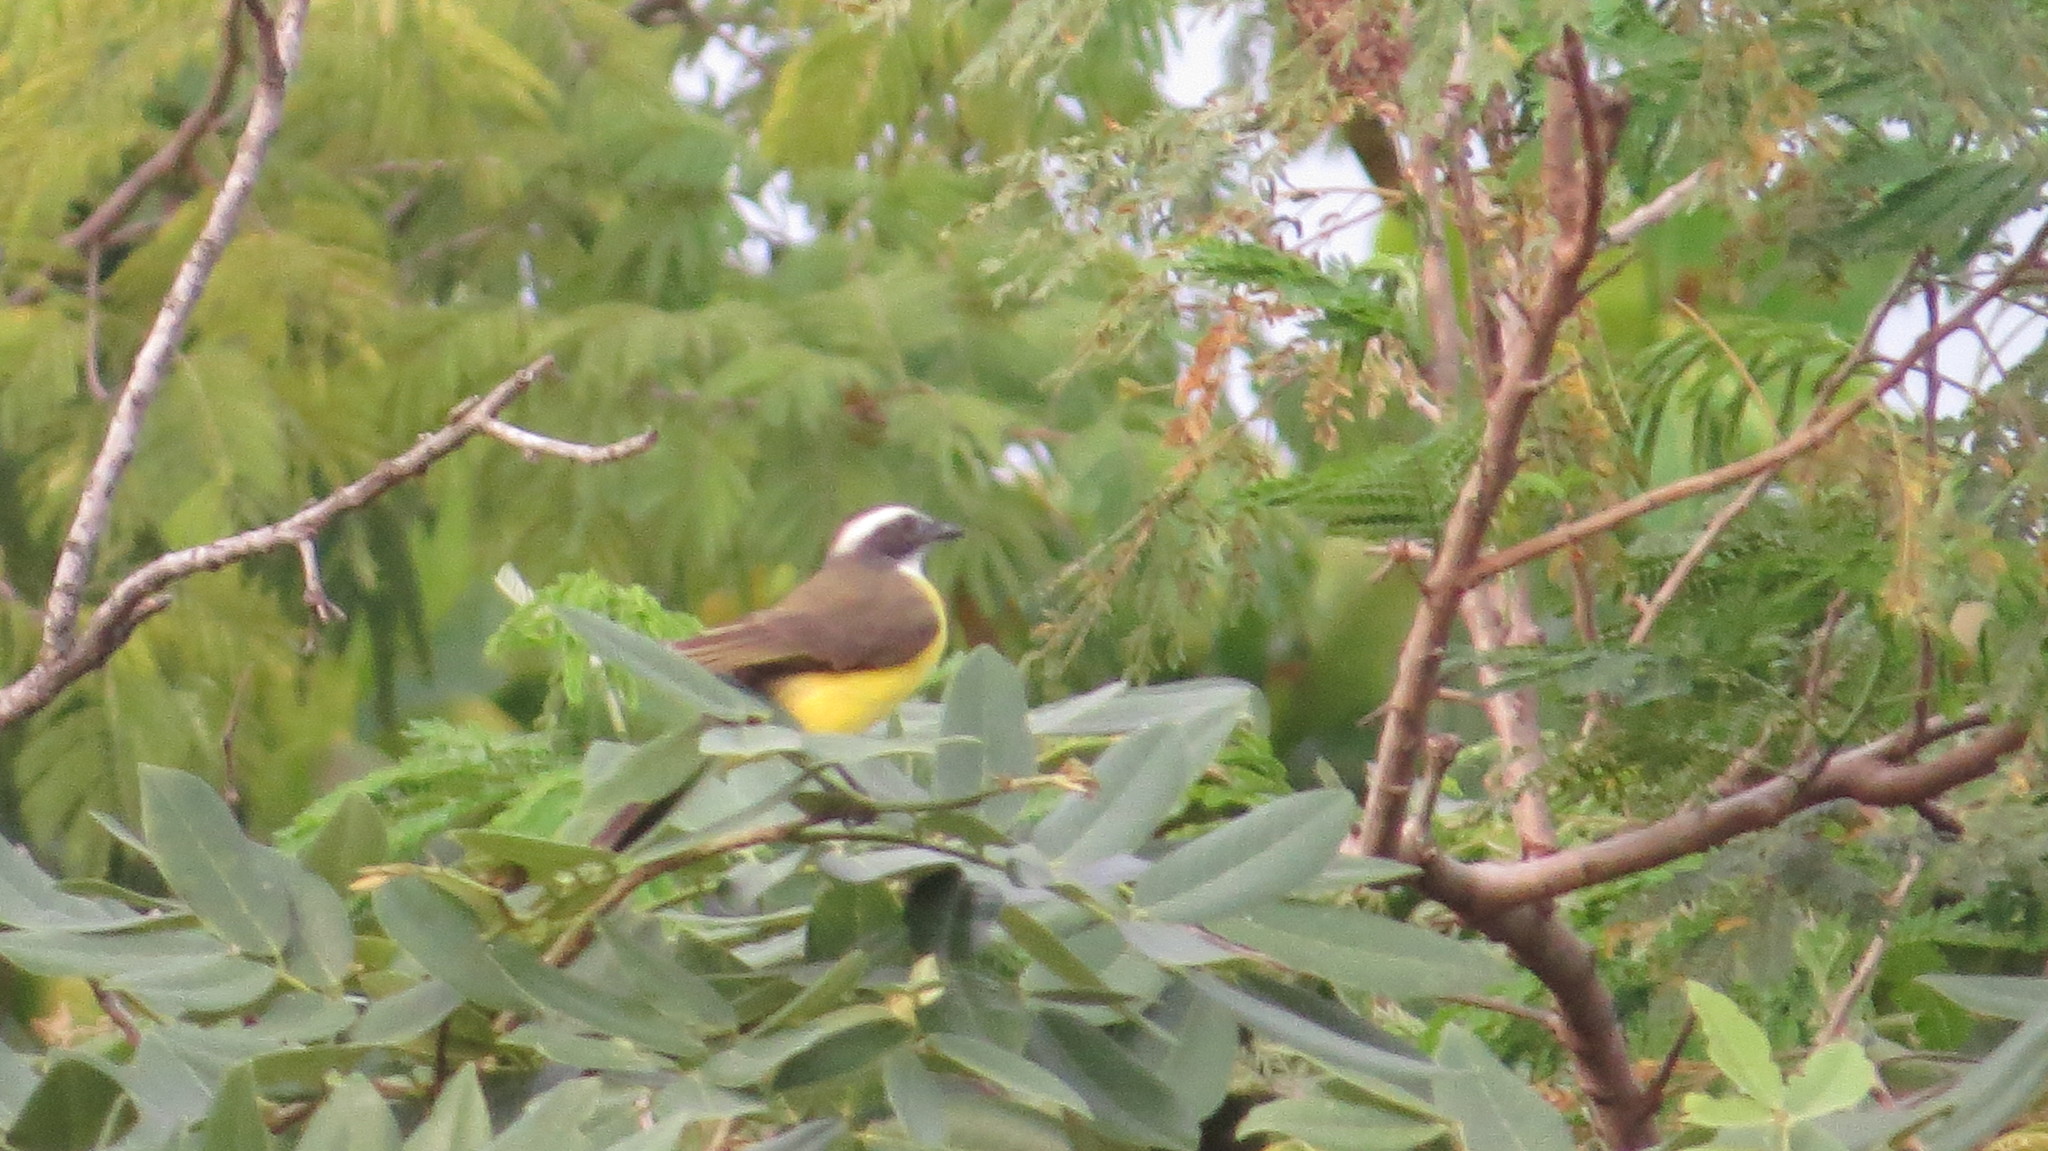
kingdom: Animalia
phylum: Chordata
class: Aves
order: Passeriformes
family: Tyrannidae
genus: Myiozetetes
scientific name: Myiozetetes similis
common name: Social flycatcher
